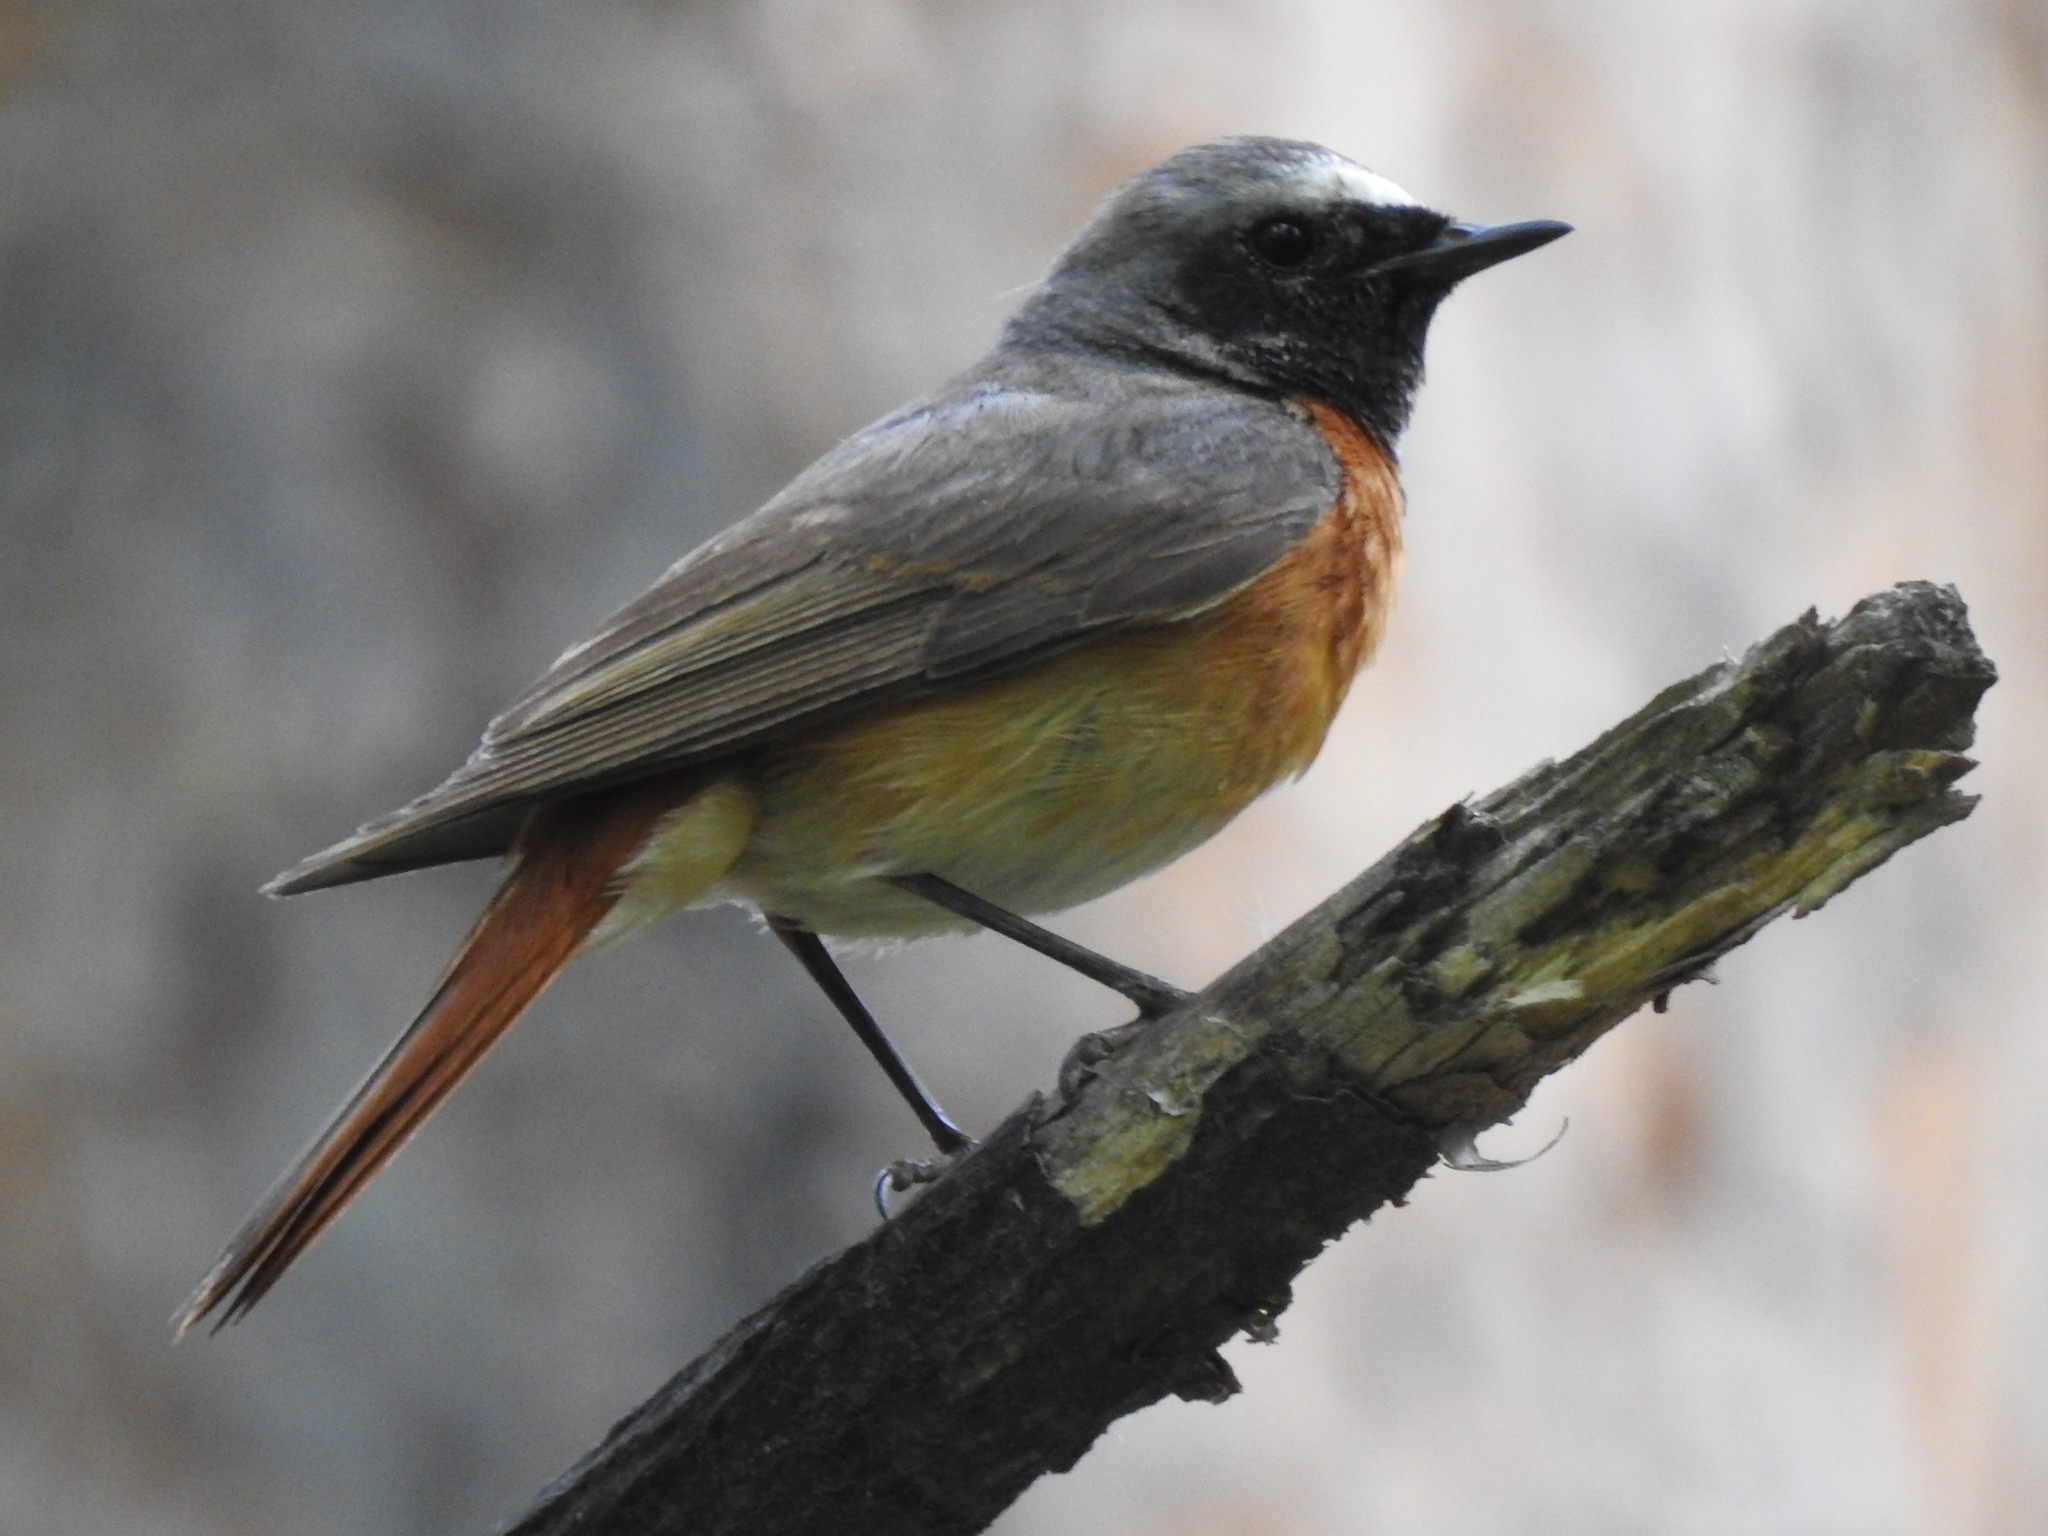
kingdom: Animalia
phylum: Chordata
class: Aves
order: Passeriformes
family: Muscicapidae
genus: Phoenicurus
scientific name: Phoenicurus phoenicurus
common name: Common redstart
